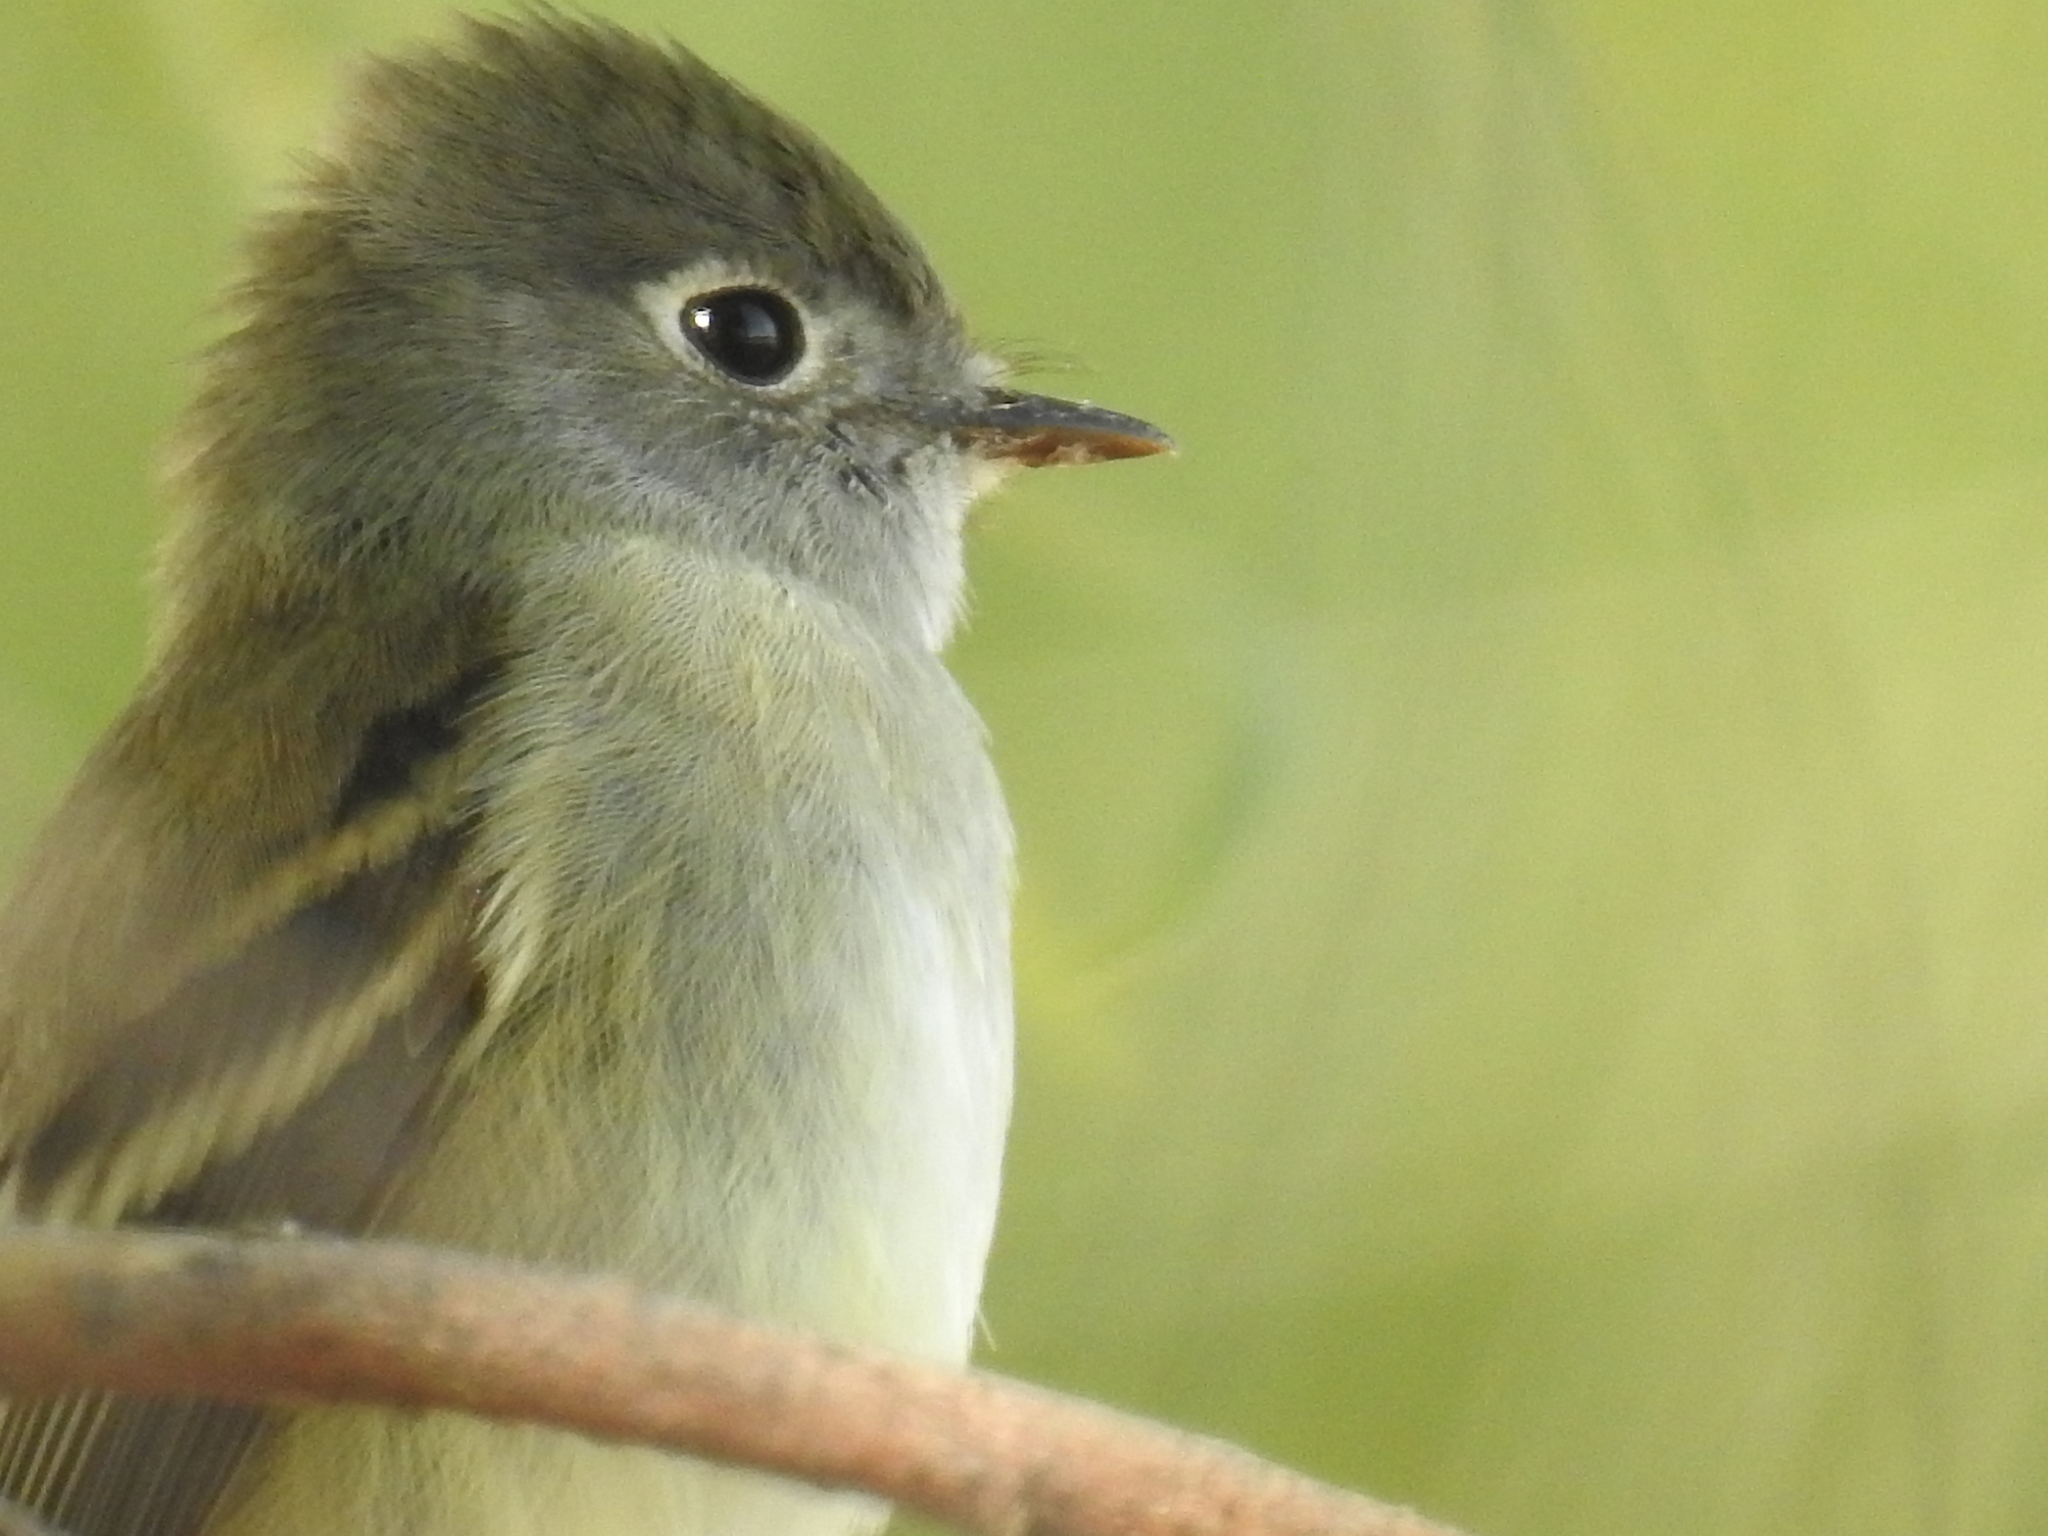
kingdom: Animalia
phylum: Chordata
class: Aves
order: Passeriformes
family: Tyrannidae
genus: Empidonax
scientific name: Empidonax hammondii
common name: Hammond's flycatcher
